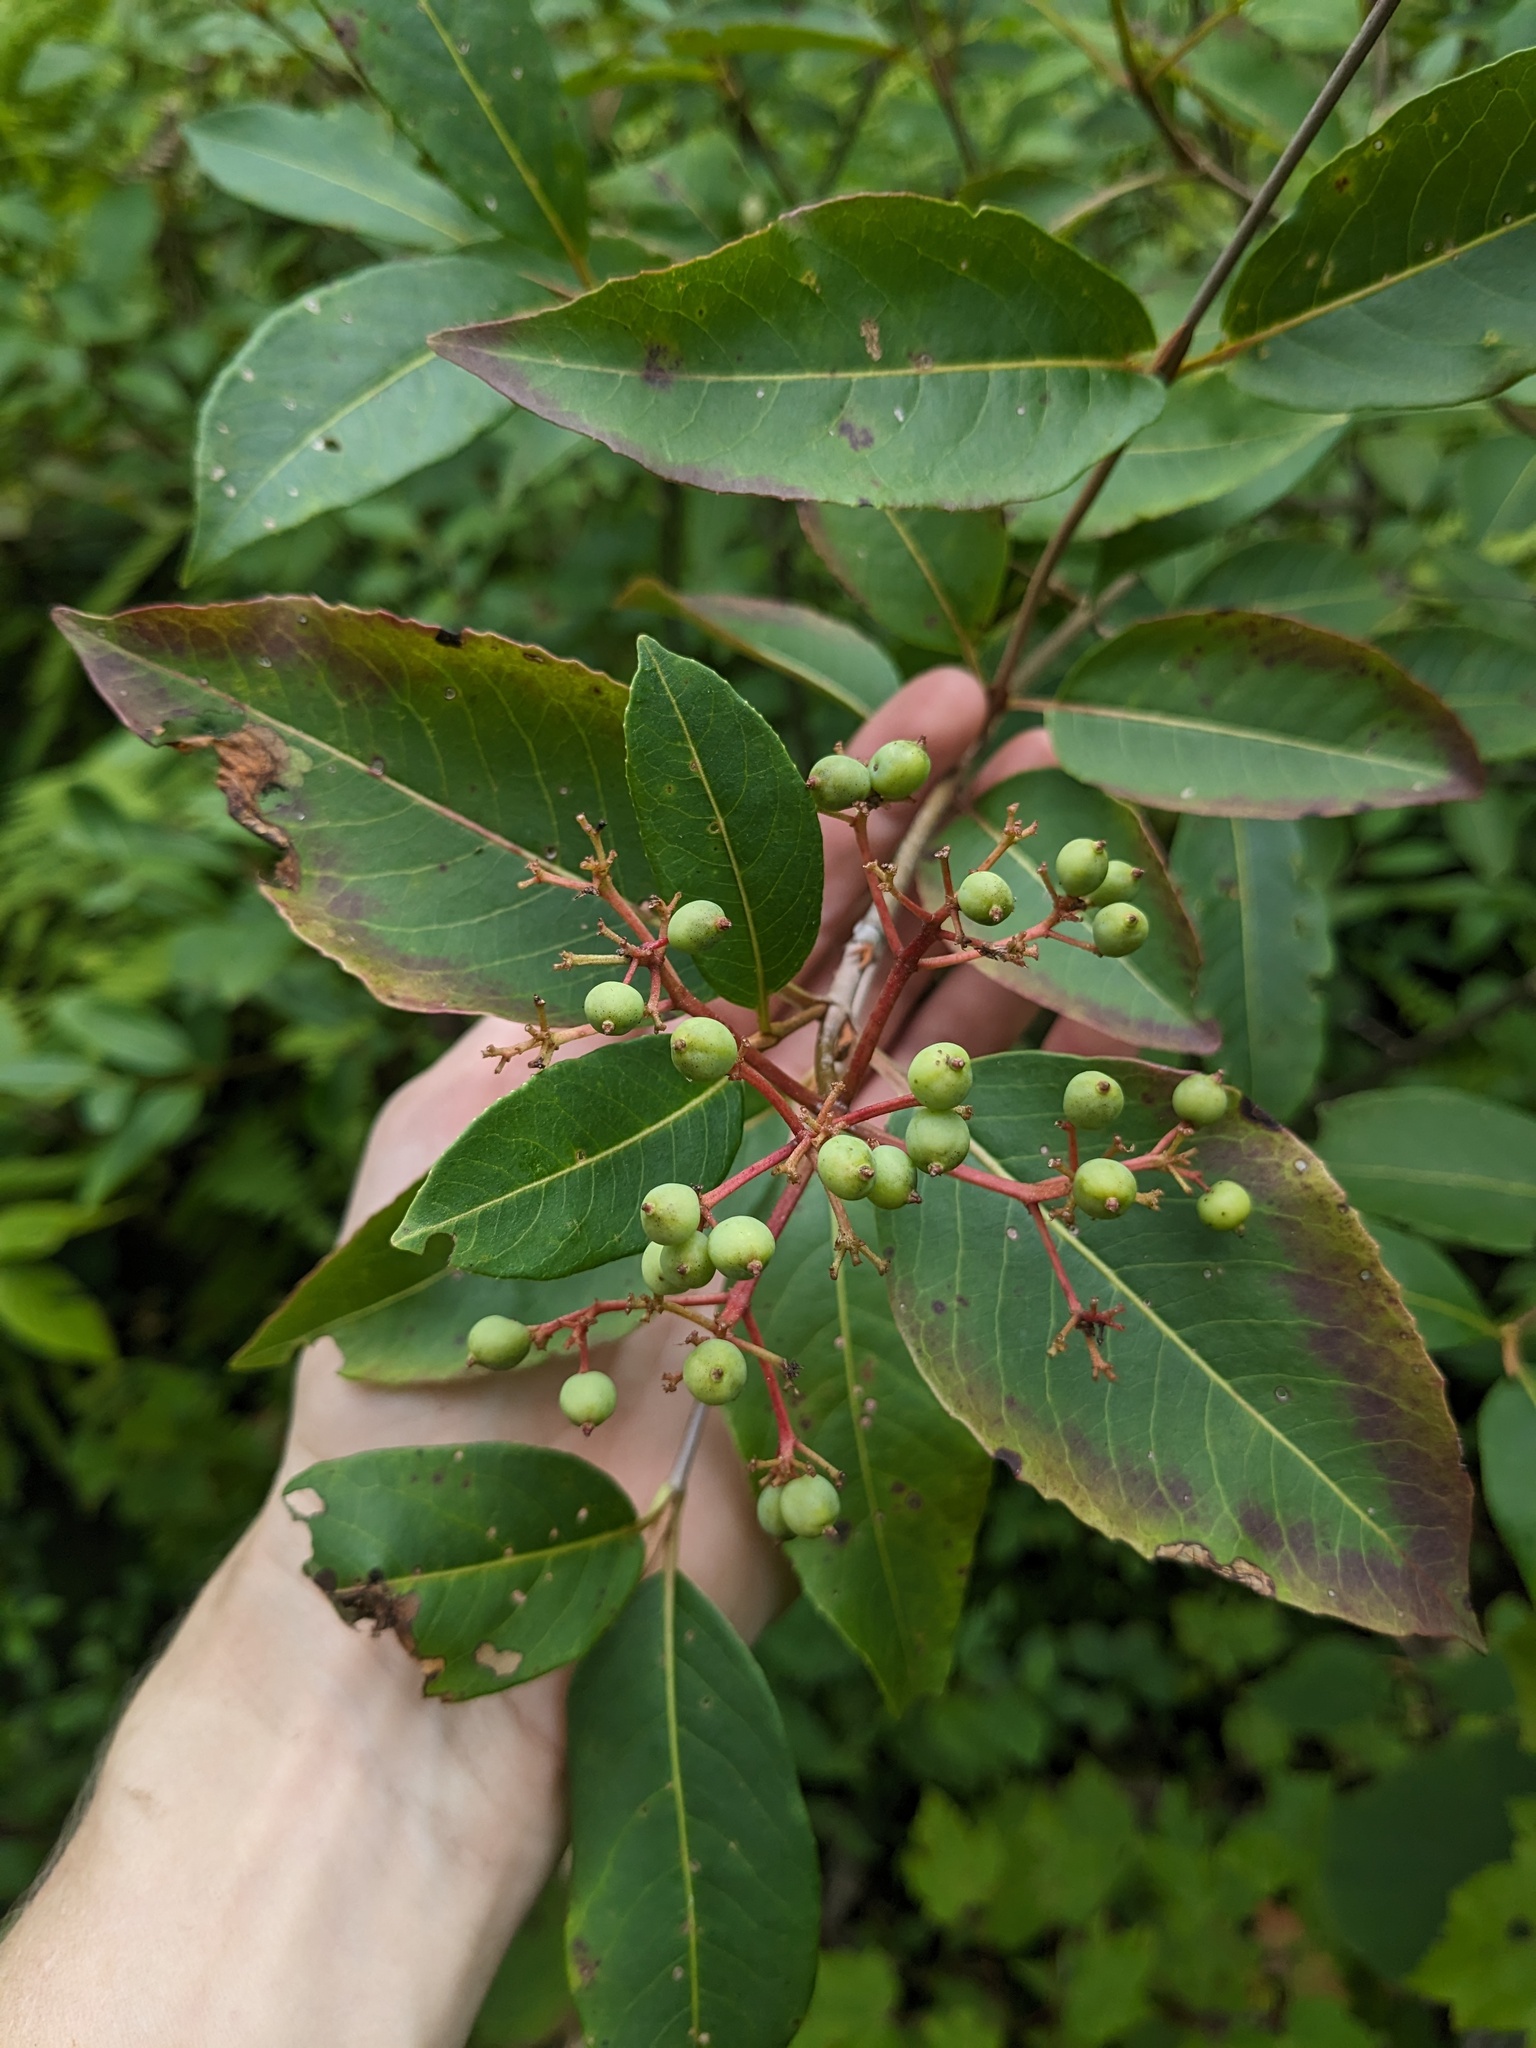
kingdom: Plantae
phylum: Tracheophyta
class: Magnoliopsida
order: Dipsacales
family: Viburnaceae
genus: Viburnum
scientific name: Viburnum cassinoides
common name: Swamp haw
